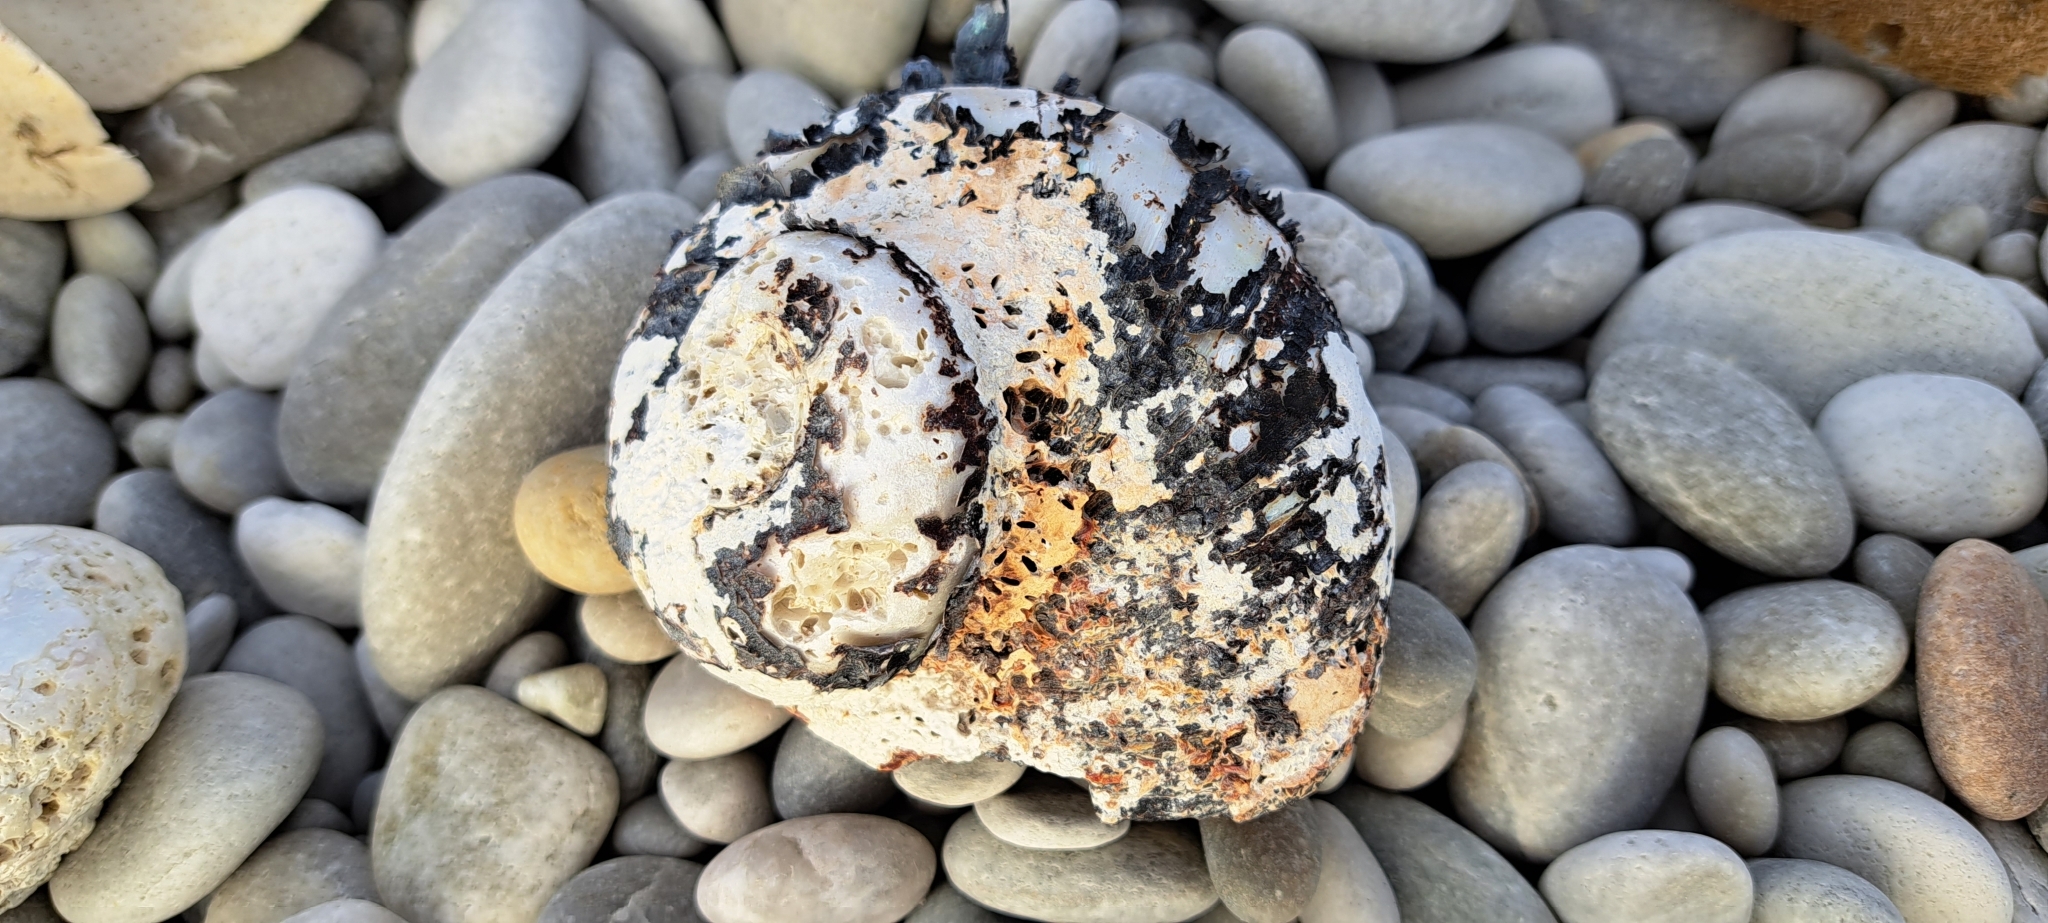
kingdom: Animalia
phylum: Mollusca
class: Gastropoda
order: Trochida
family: Turbinidae
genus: Turbo
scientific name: Turbo sarmaticus
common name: South african turban
